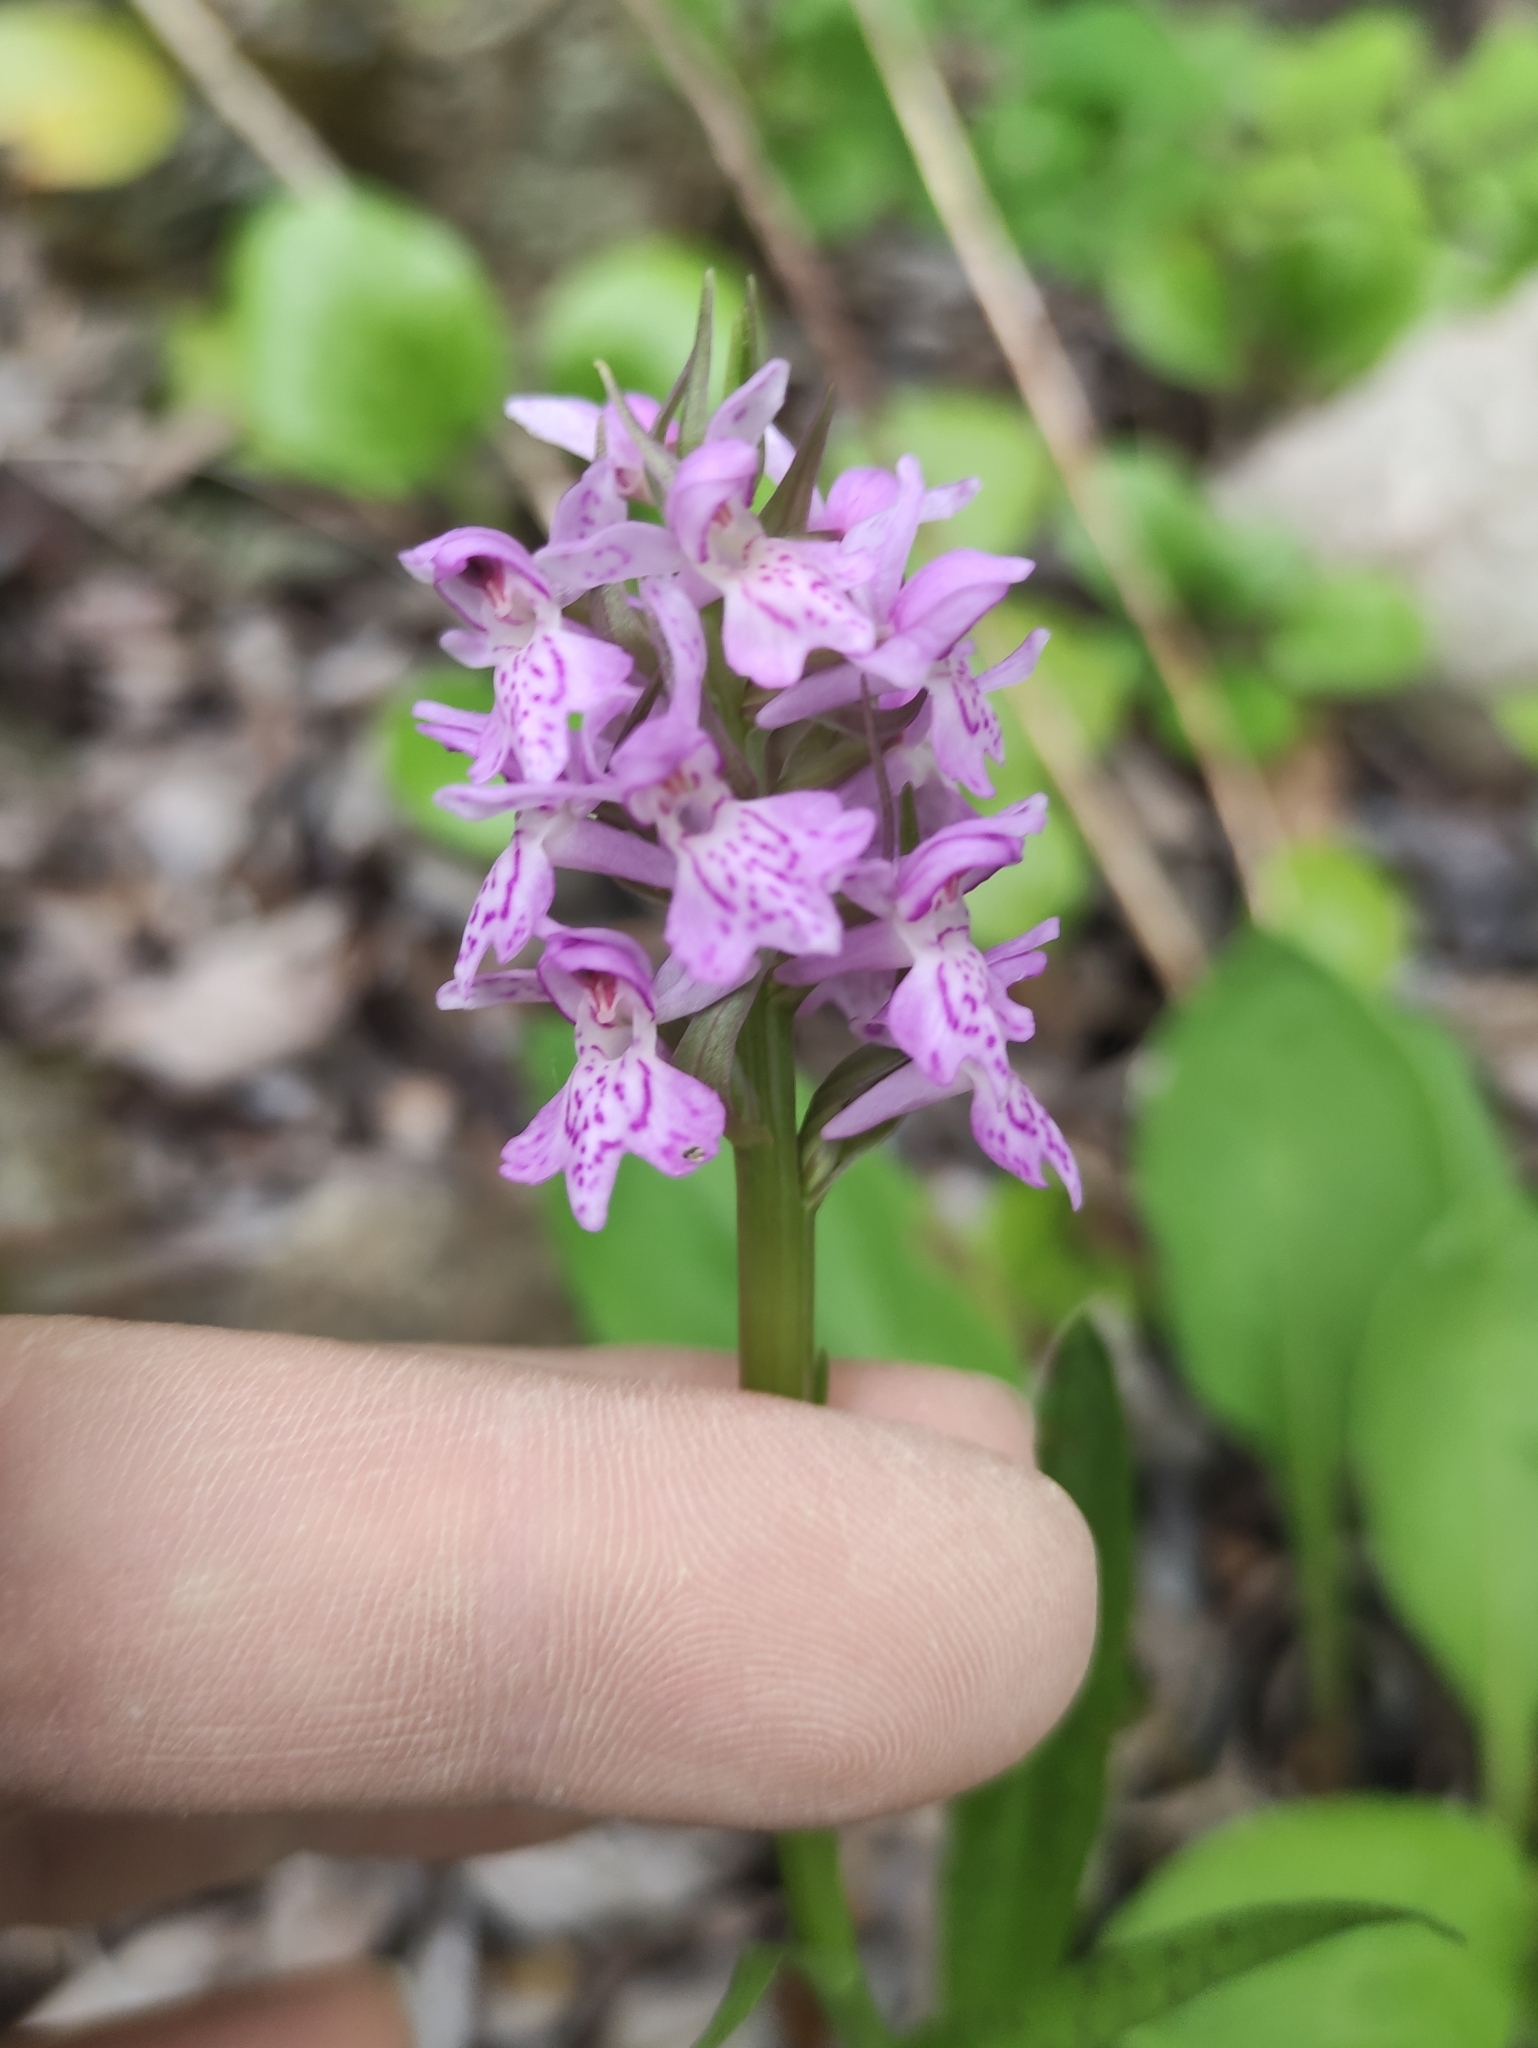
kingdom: Plantae
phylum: Tracheophyta
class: Liliopsida
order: Asparagales
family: Orchidaceae
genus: Dactylorhiza
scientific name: Dactylorhiza majalis
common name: Marsh orchid
